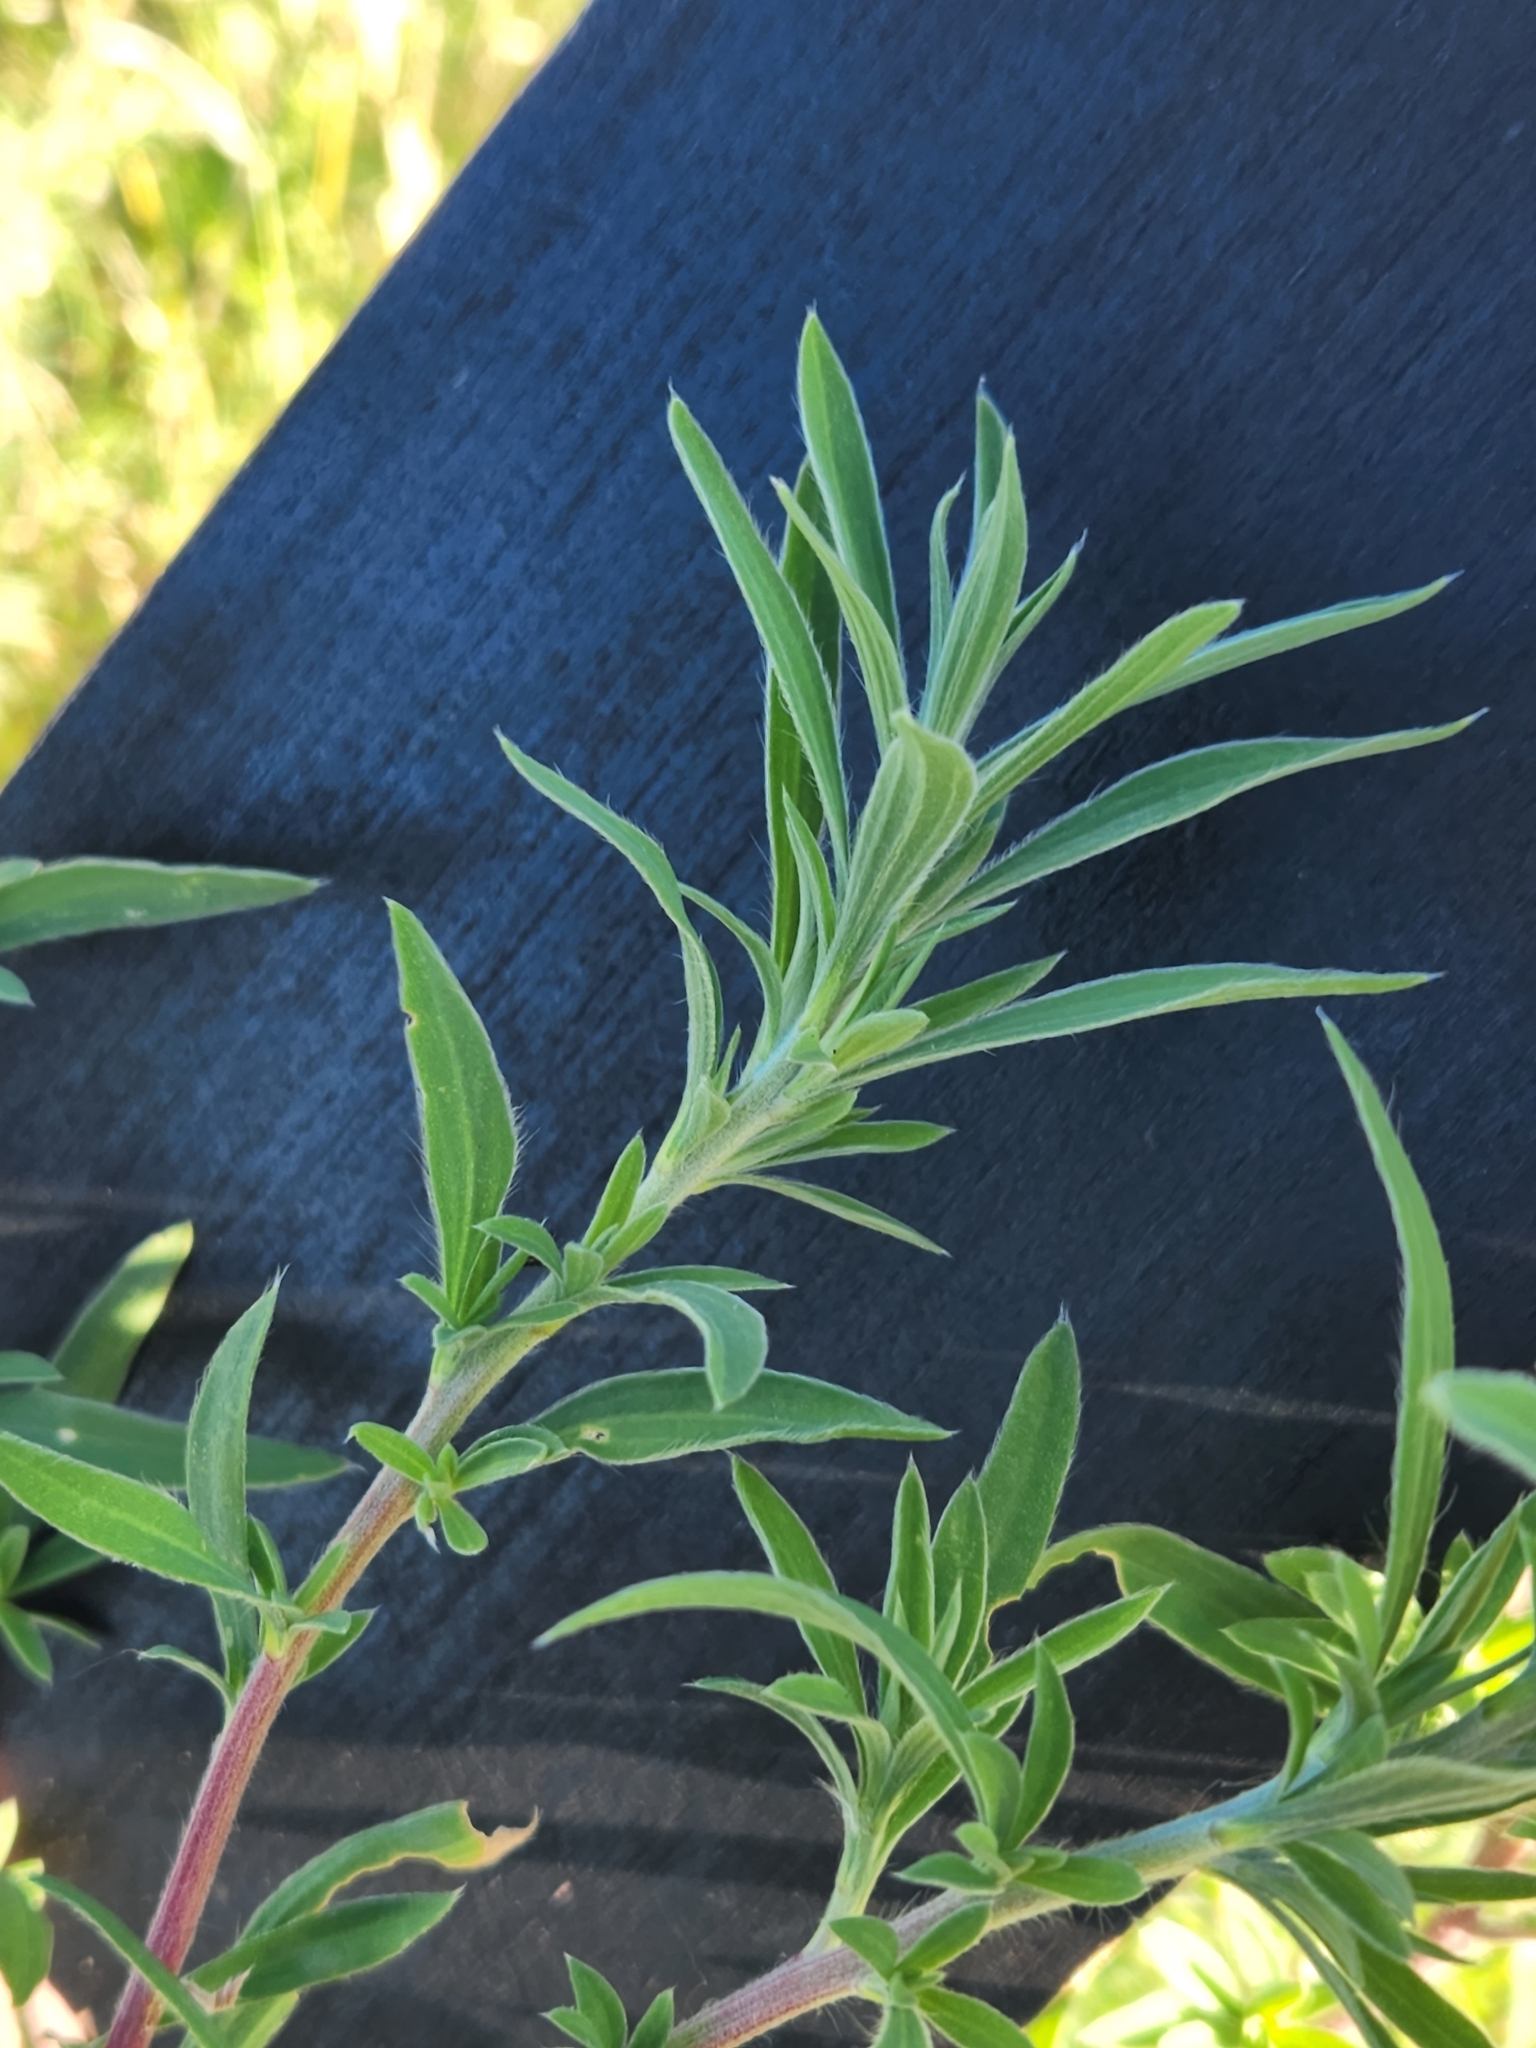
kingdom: Plantae
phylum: Tracheophyta
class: Magnoliopsida
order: Caryophyllales
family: Amaranthaceae
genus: Bassia
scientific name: Bassia scoparia
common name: Belvedere
